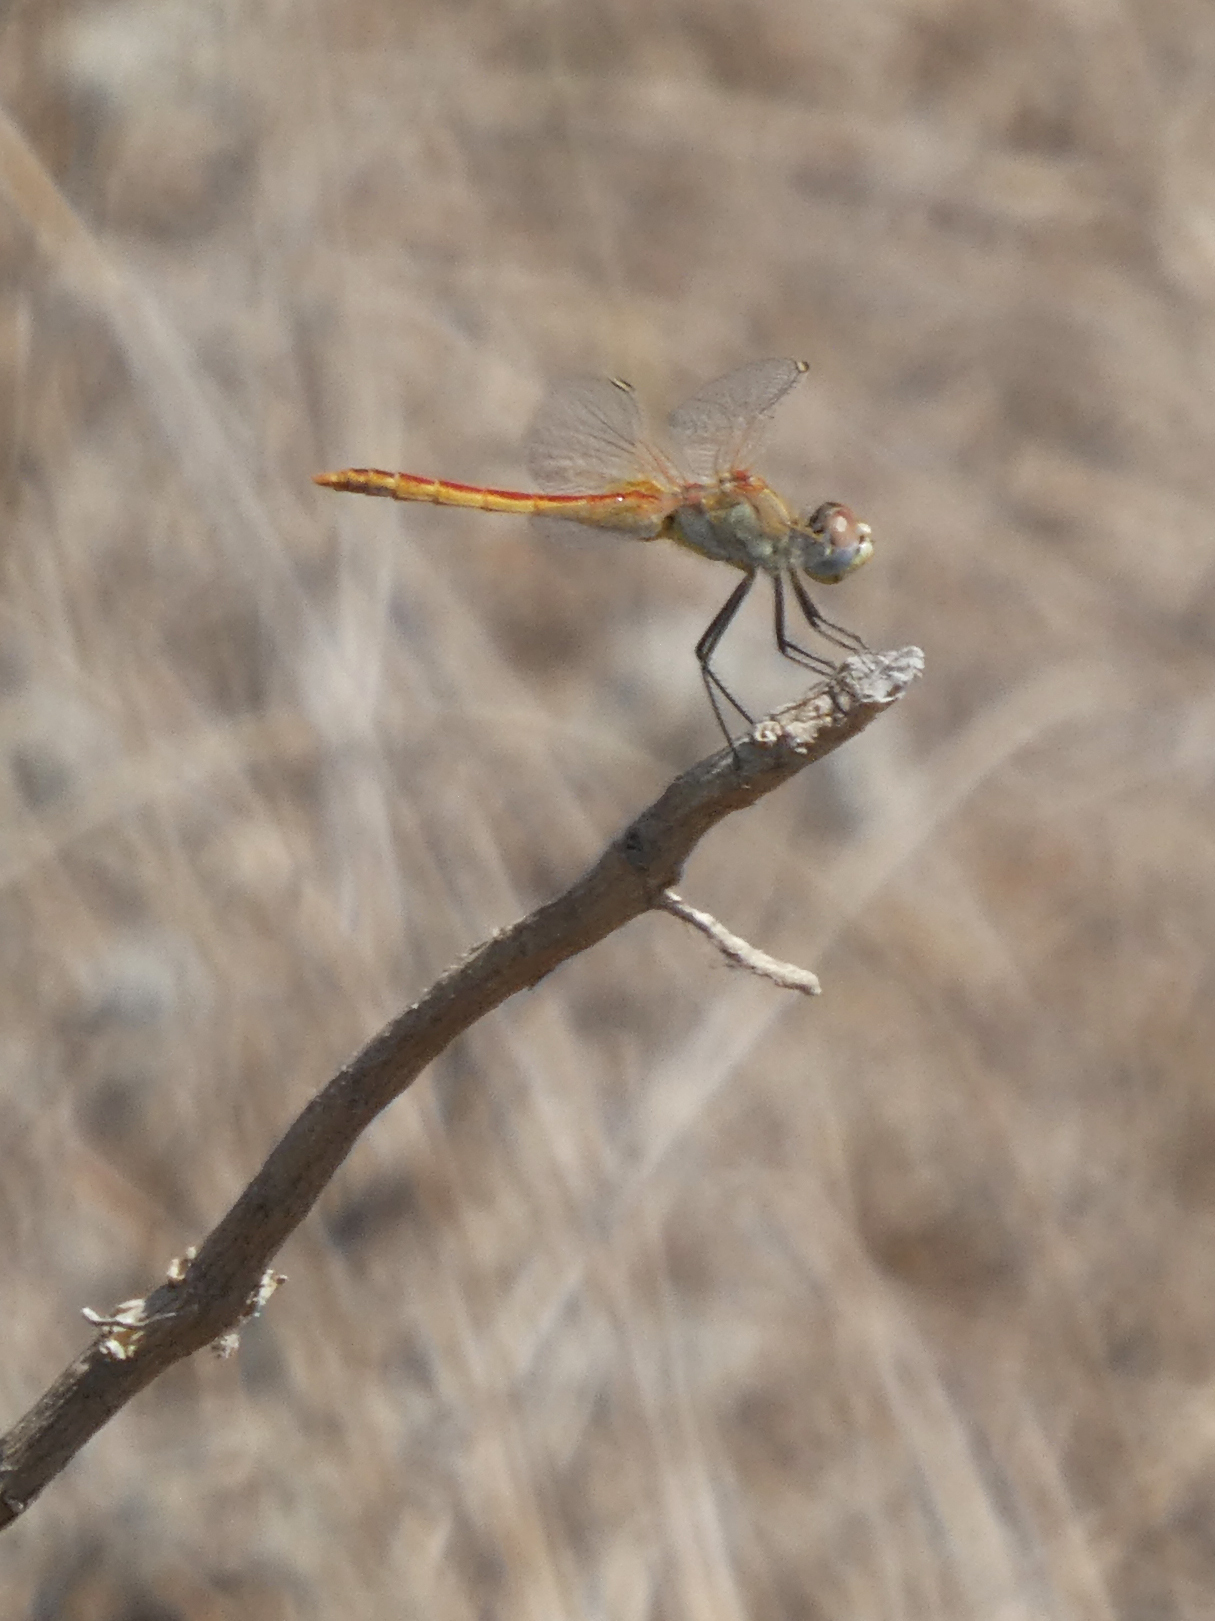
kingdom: Animalia
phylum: Arthropoda
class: Insecta
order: Odonata
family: Libellulidae
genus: Sympetrum
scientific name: Sympetrum fonscolombii
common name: Red-veined darter
